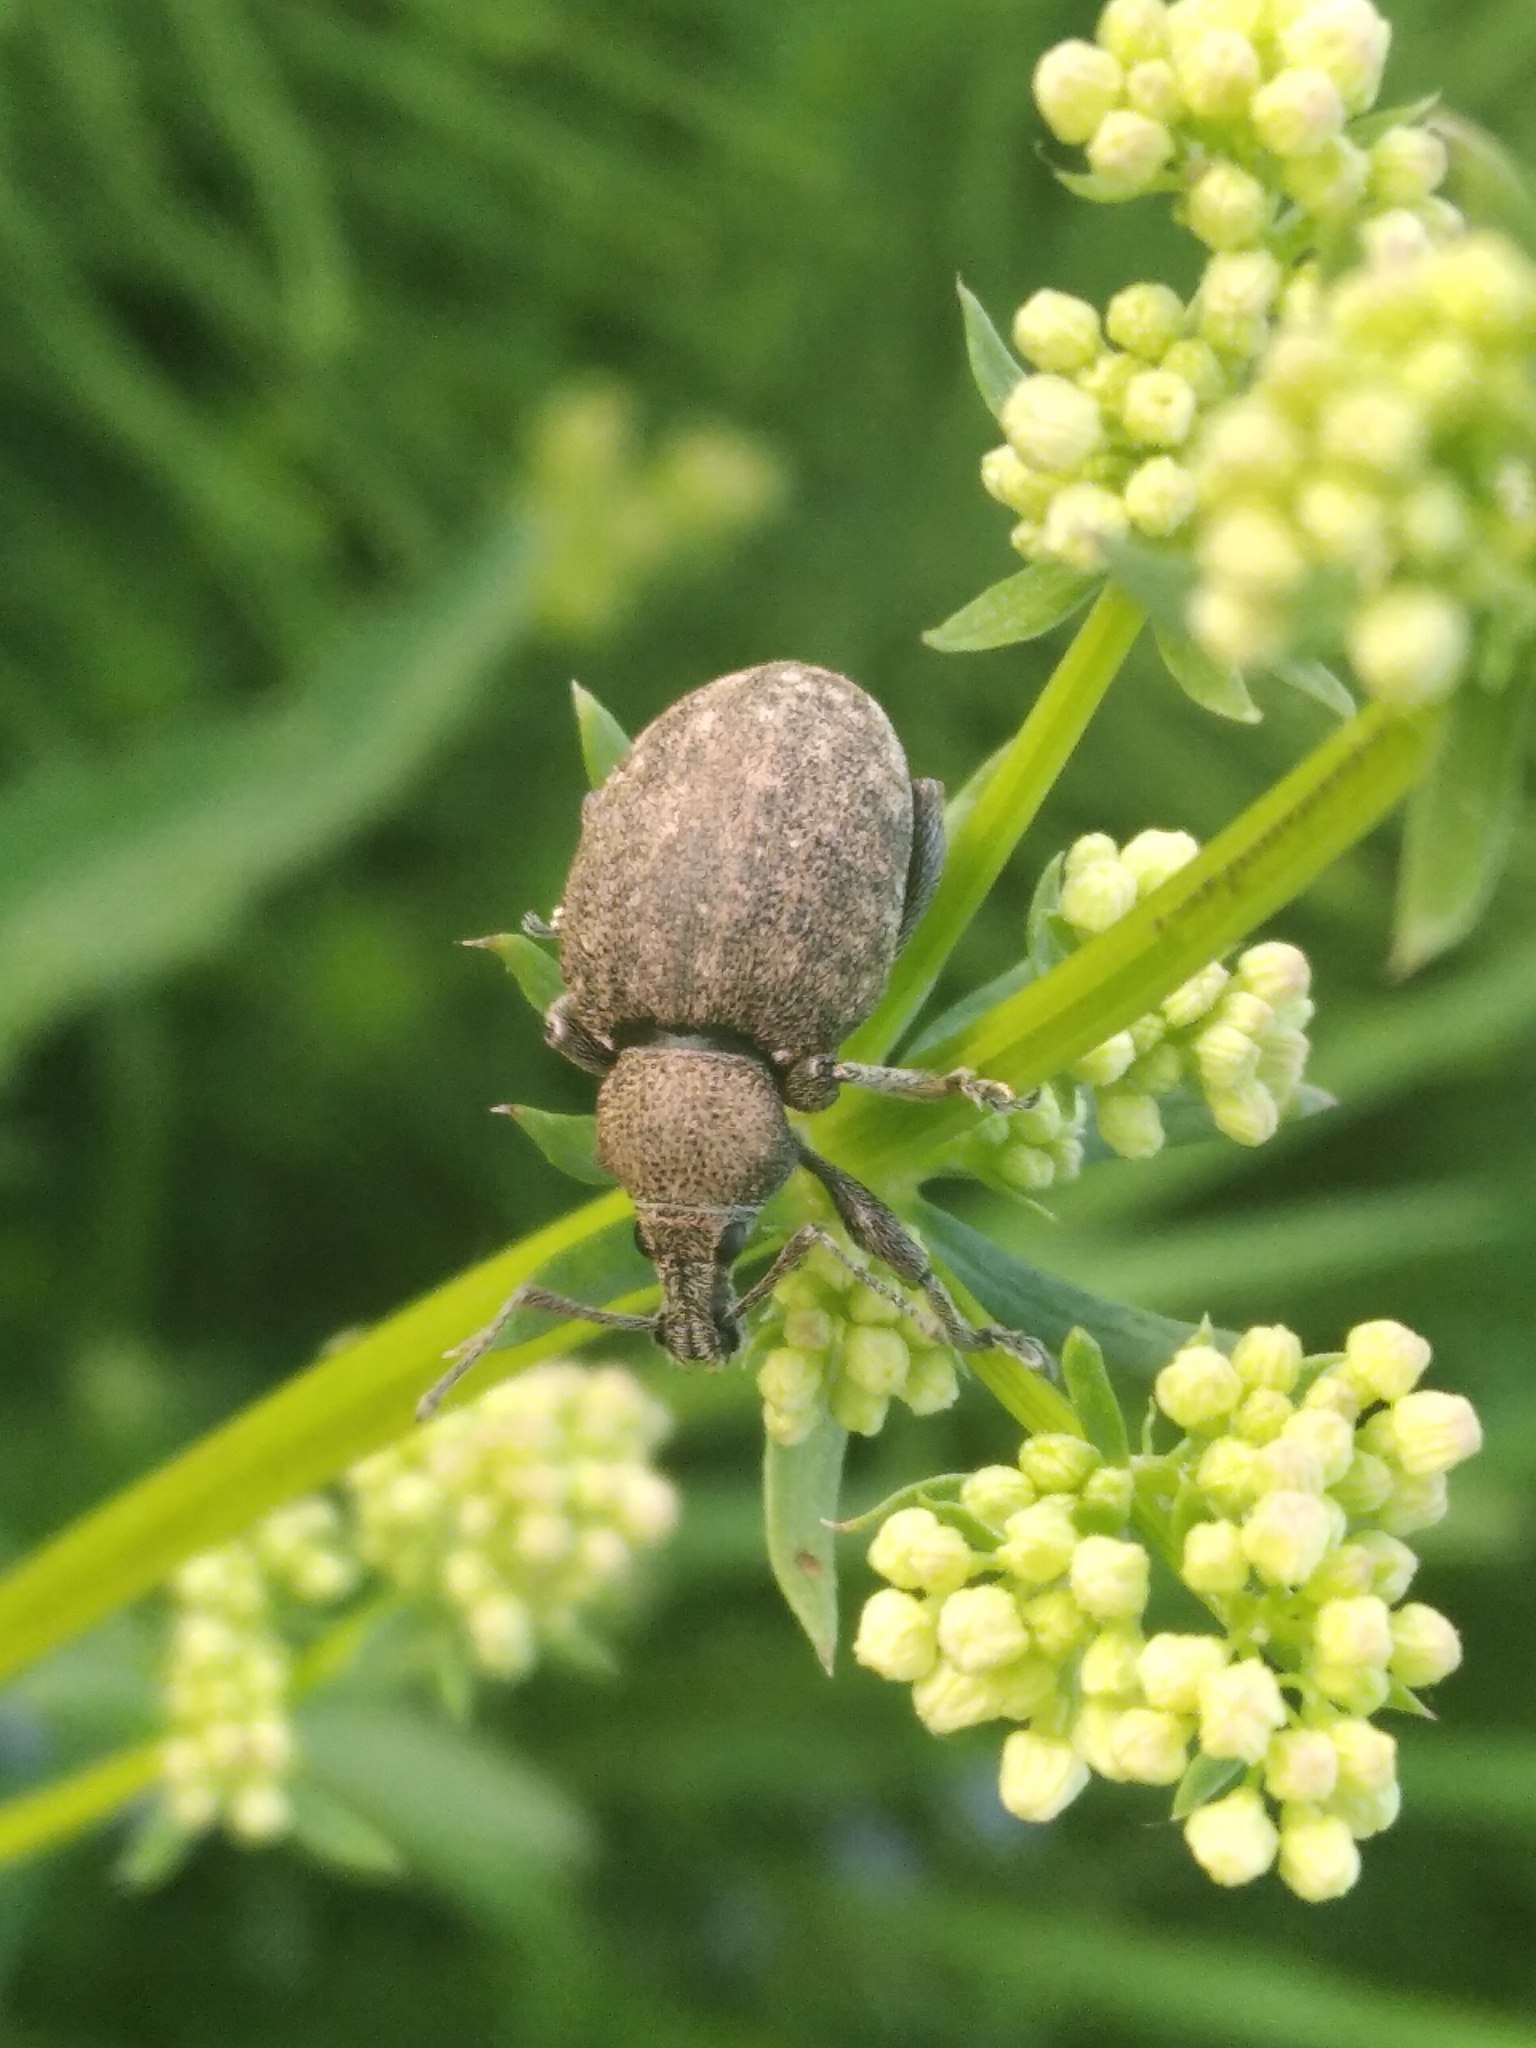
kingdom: Animalia
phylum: Arthropoda
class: Insecta
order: Coleoptera
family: Curculionidae
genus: Liophloeus
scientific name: Liophloeus tessulatus
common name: Weevil
